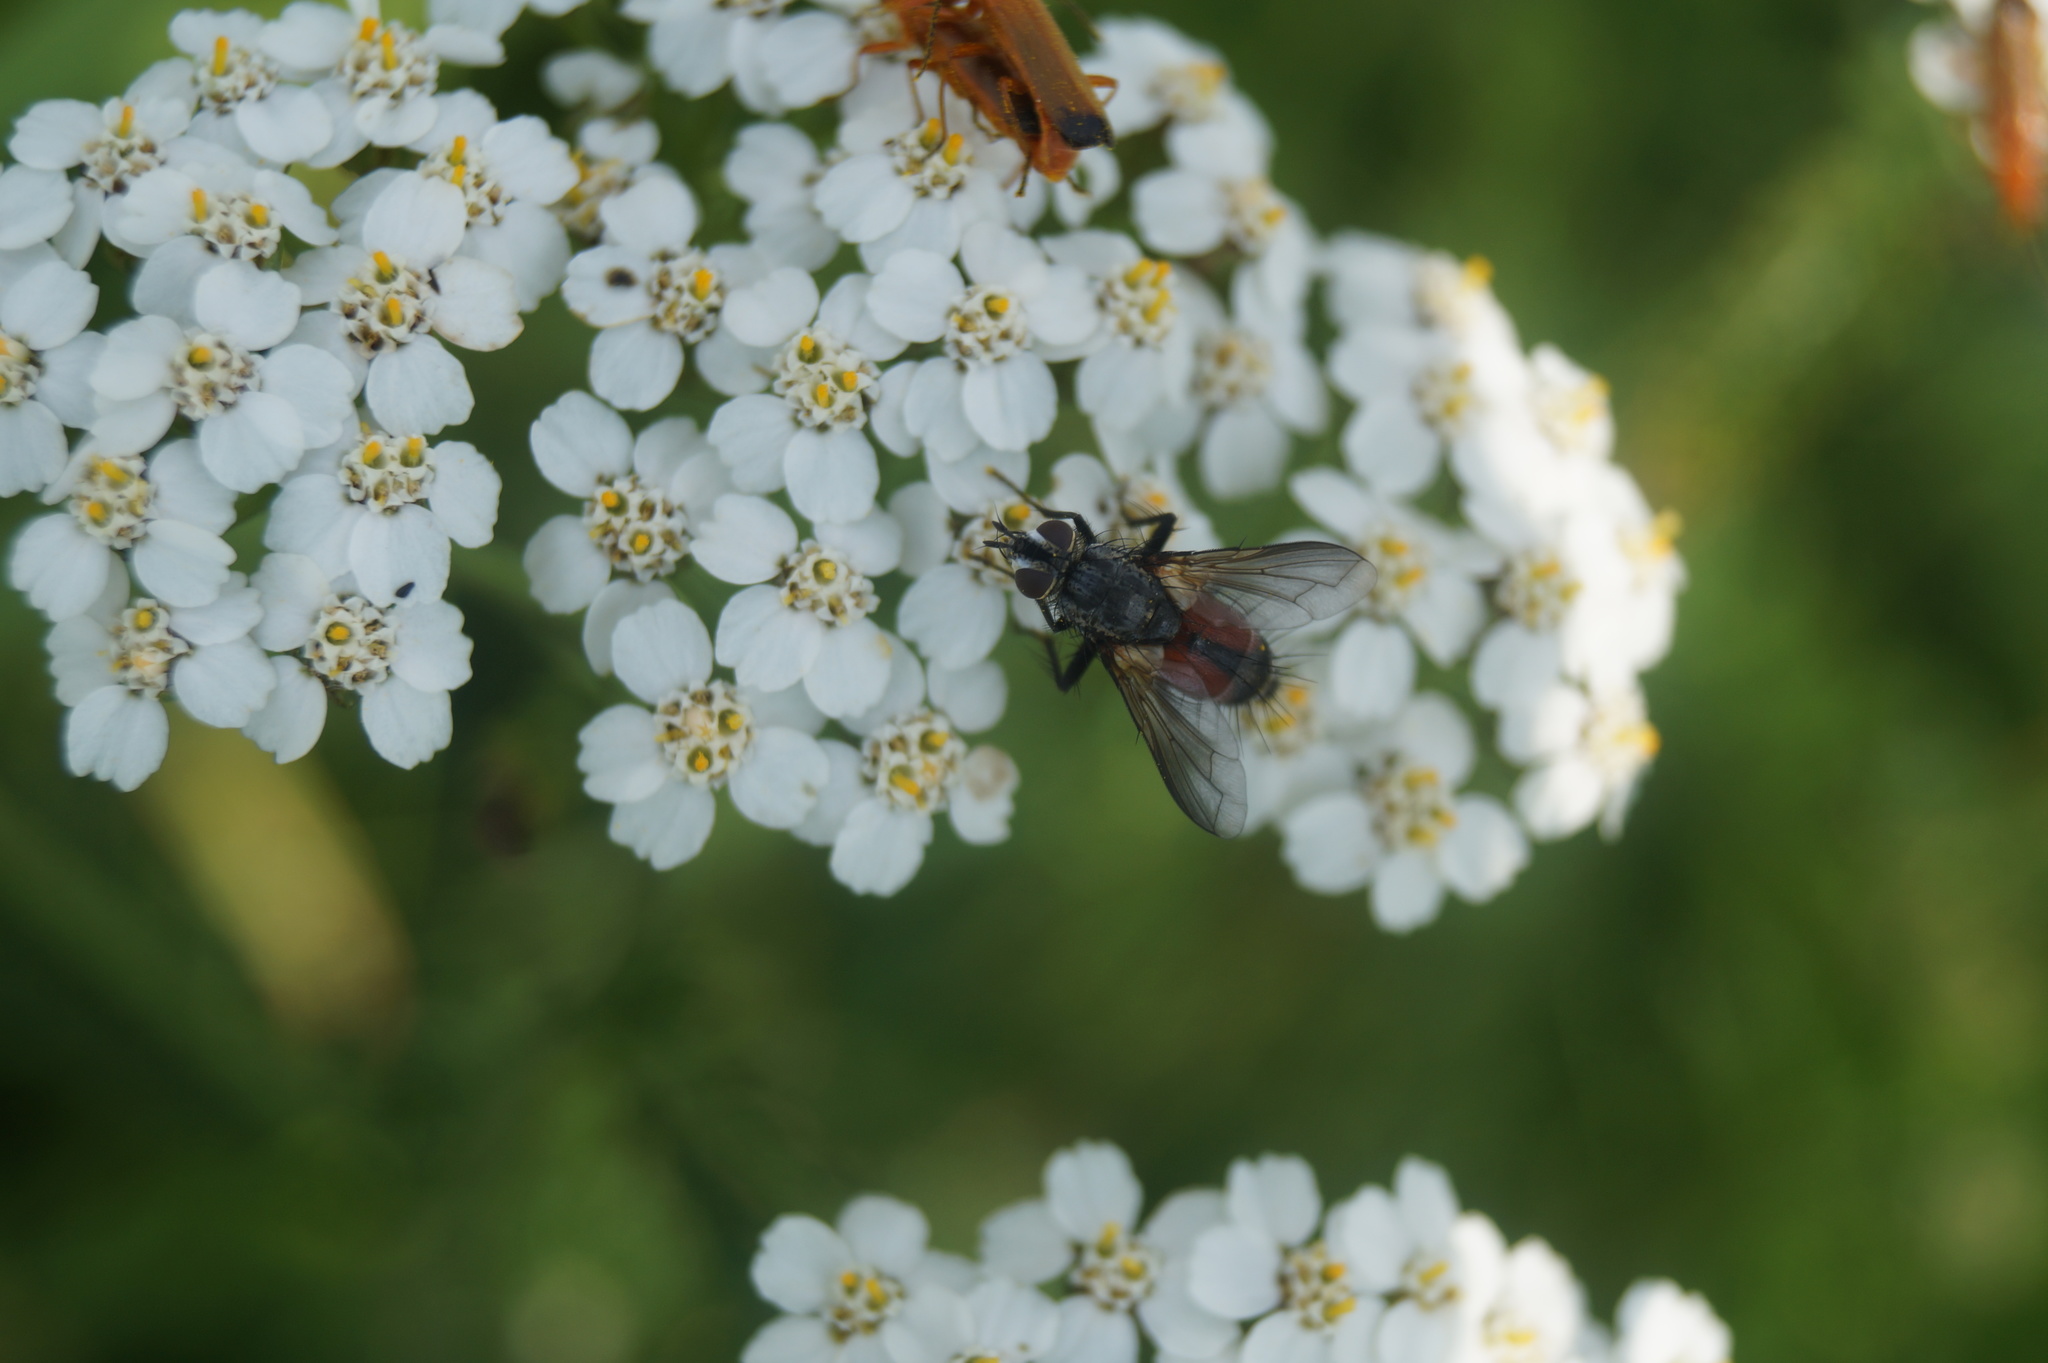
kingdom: Animalia
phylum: Arthropoda
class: Insecta
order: Diptera
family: Tachinidae
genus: Eriothrix
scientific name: Eriothrix rufomaculatus
